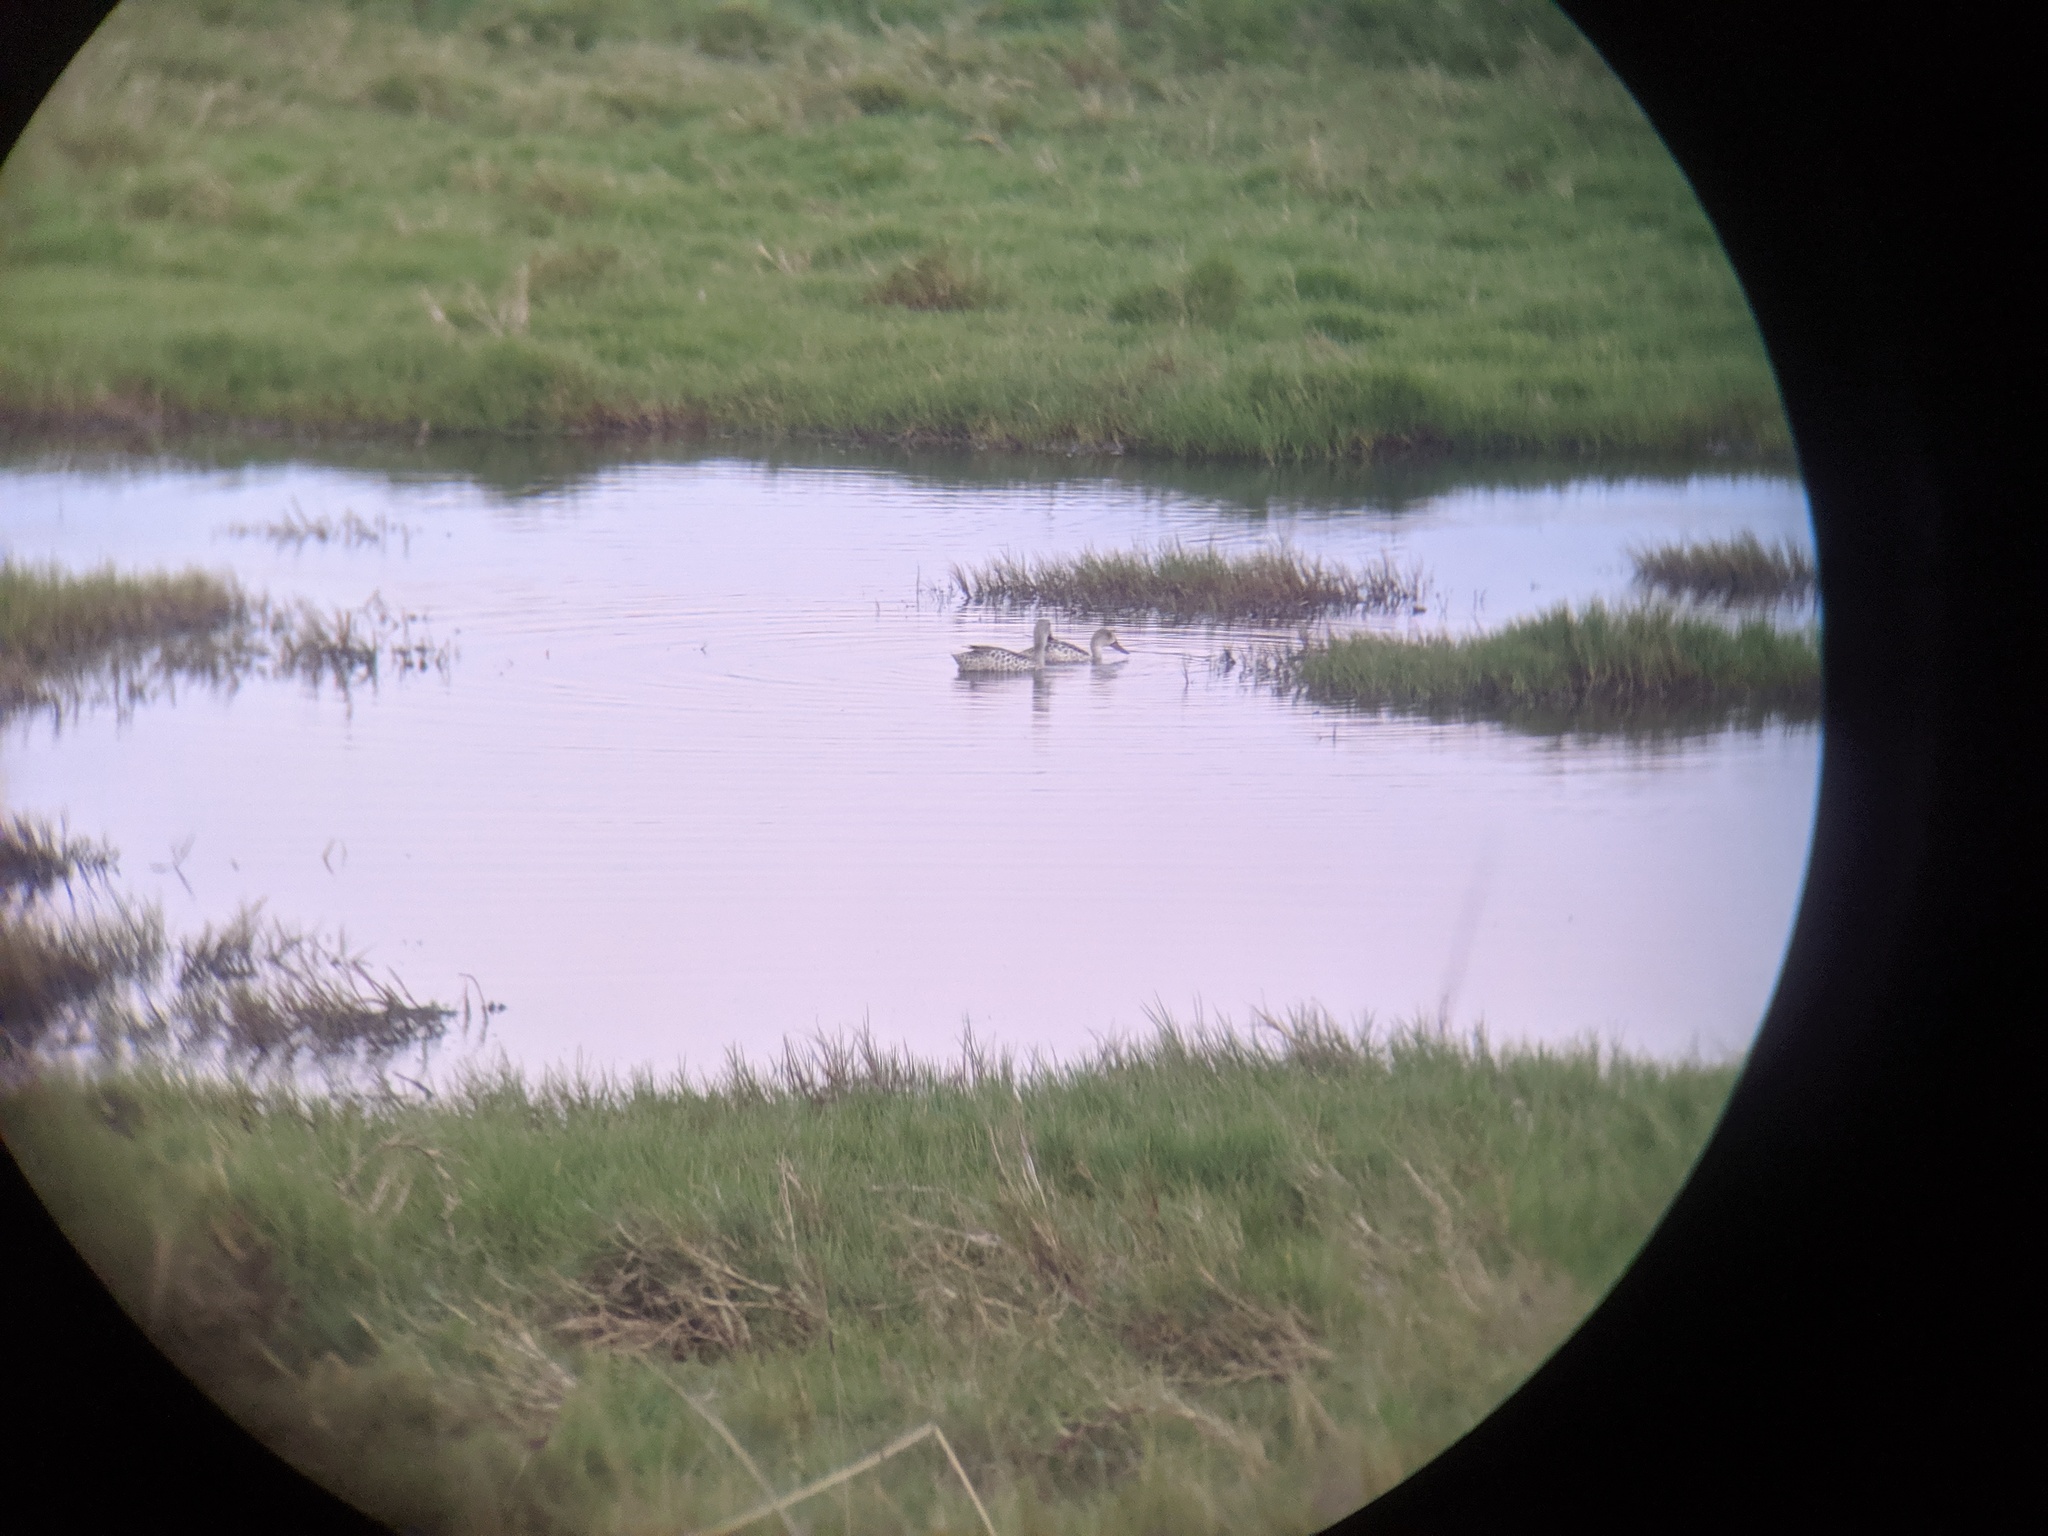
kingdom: Animalia
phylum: Chordata
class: Aves
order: Anseriformes
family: Anatidae
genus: Anas
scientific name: Anas capensis
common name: Cape teal
